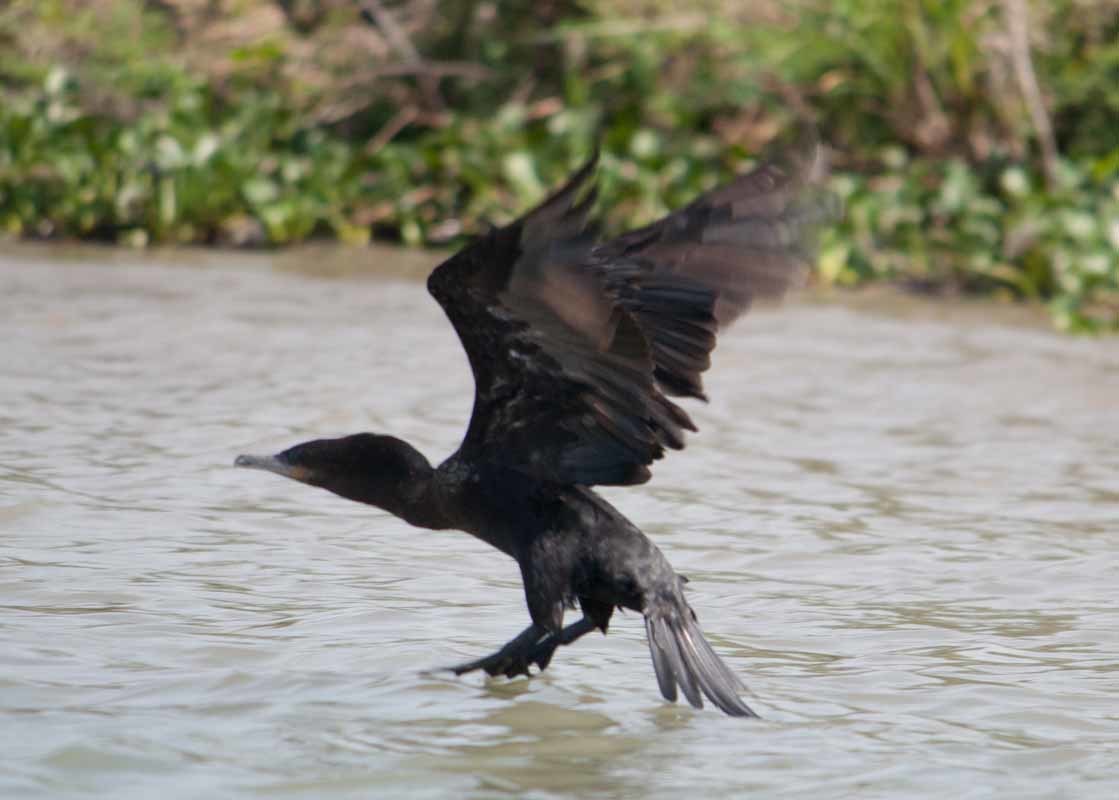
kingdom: Animalia
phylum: Chordata
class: Aves
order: Suliformes
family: Phalacrocoracidae
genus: Phalacrocorax
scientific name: Phalacrocorax brasilianus
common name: Neotropic cormorant
